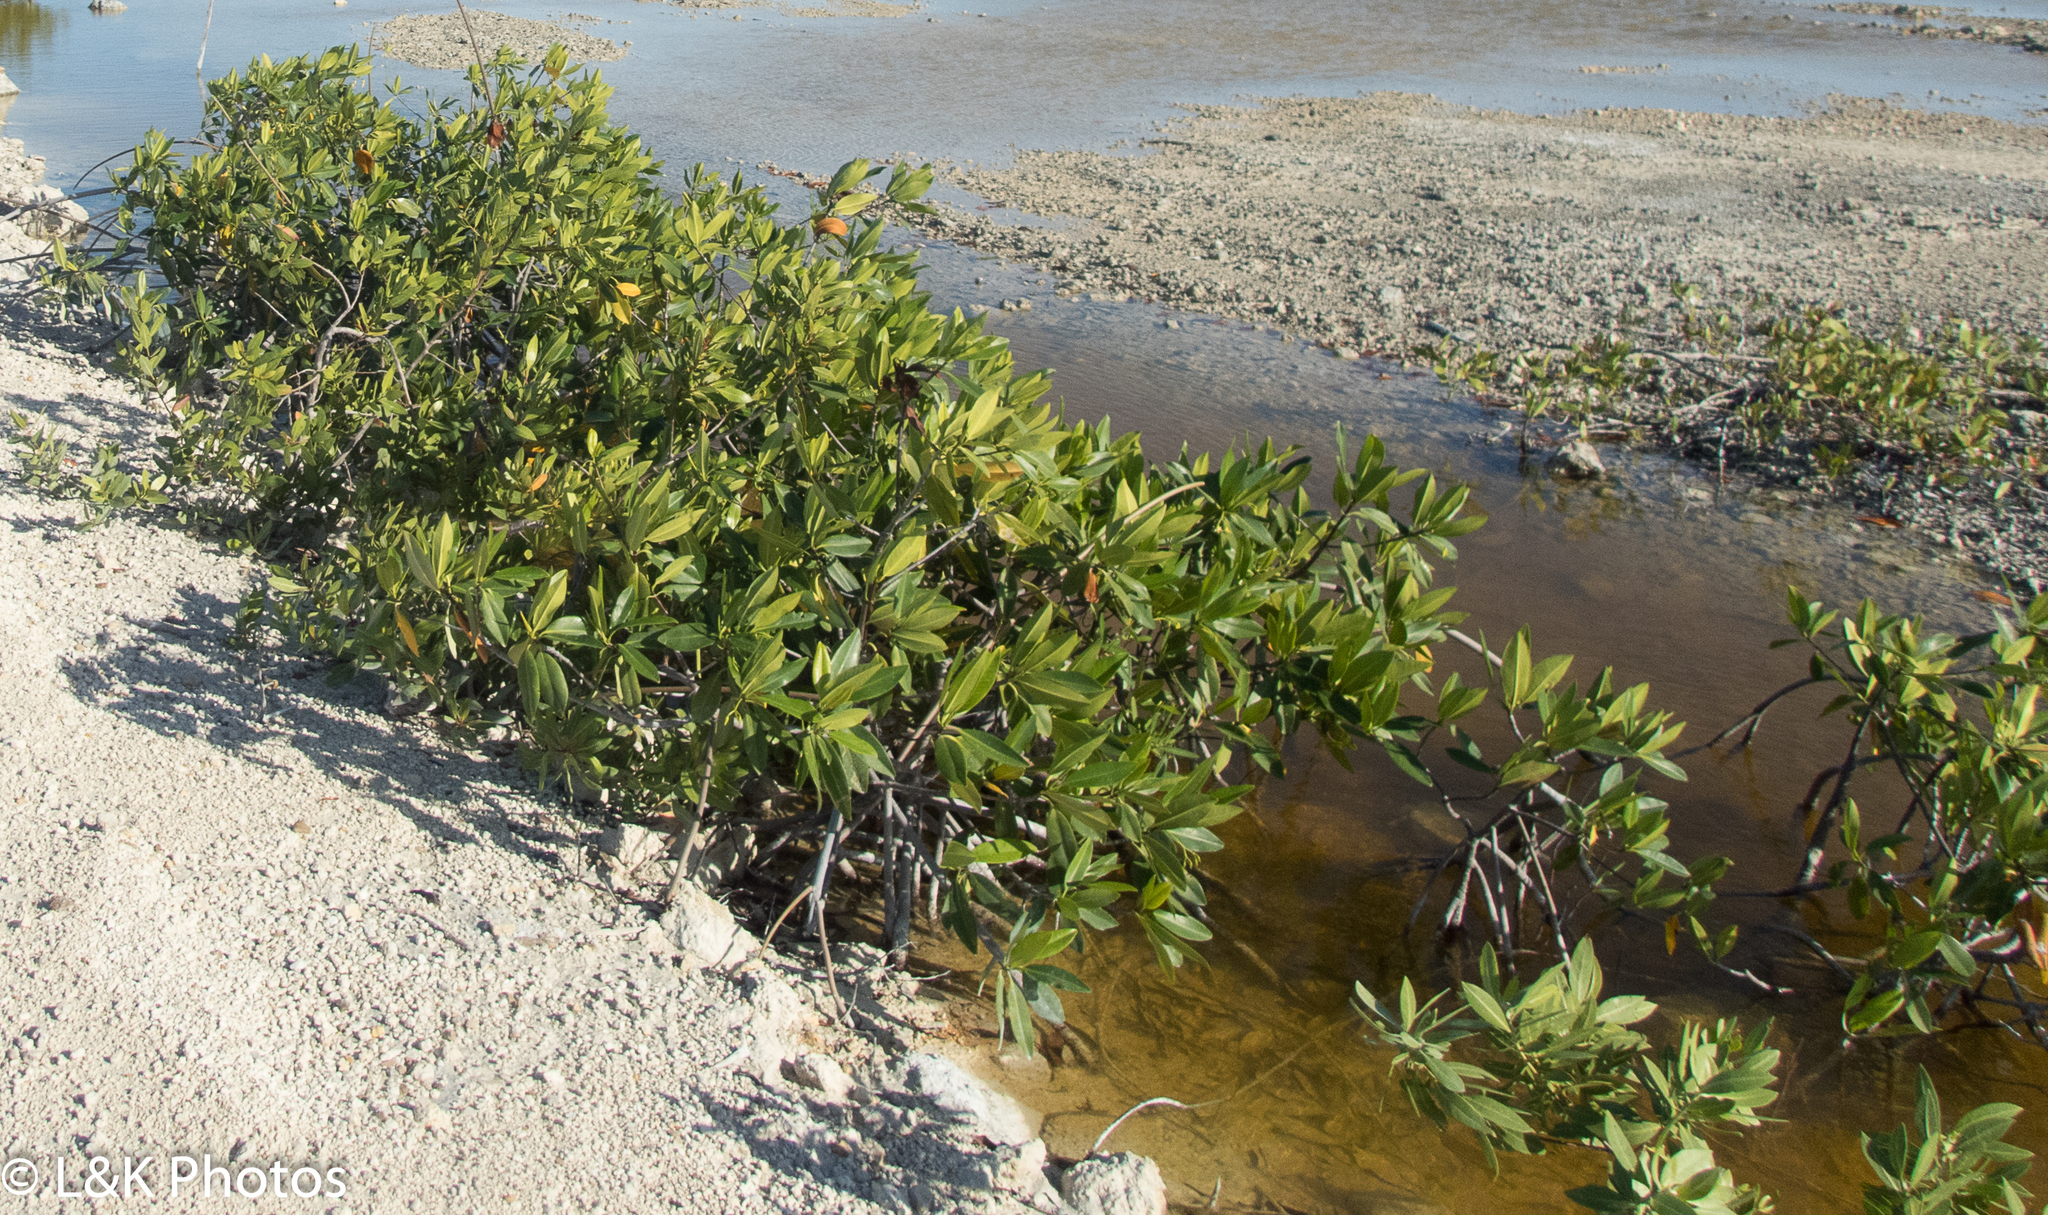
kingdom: Plantae
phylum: Tracheophyta
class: Magnoliopsida
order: Malpighiales
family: Rhizophoraceae
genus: Rhizophora
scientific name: Rhizophora mangle
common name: Red mangrove
